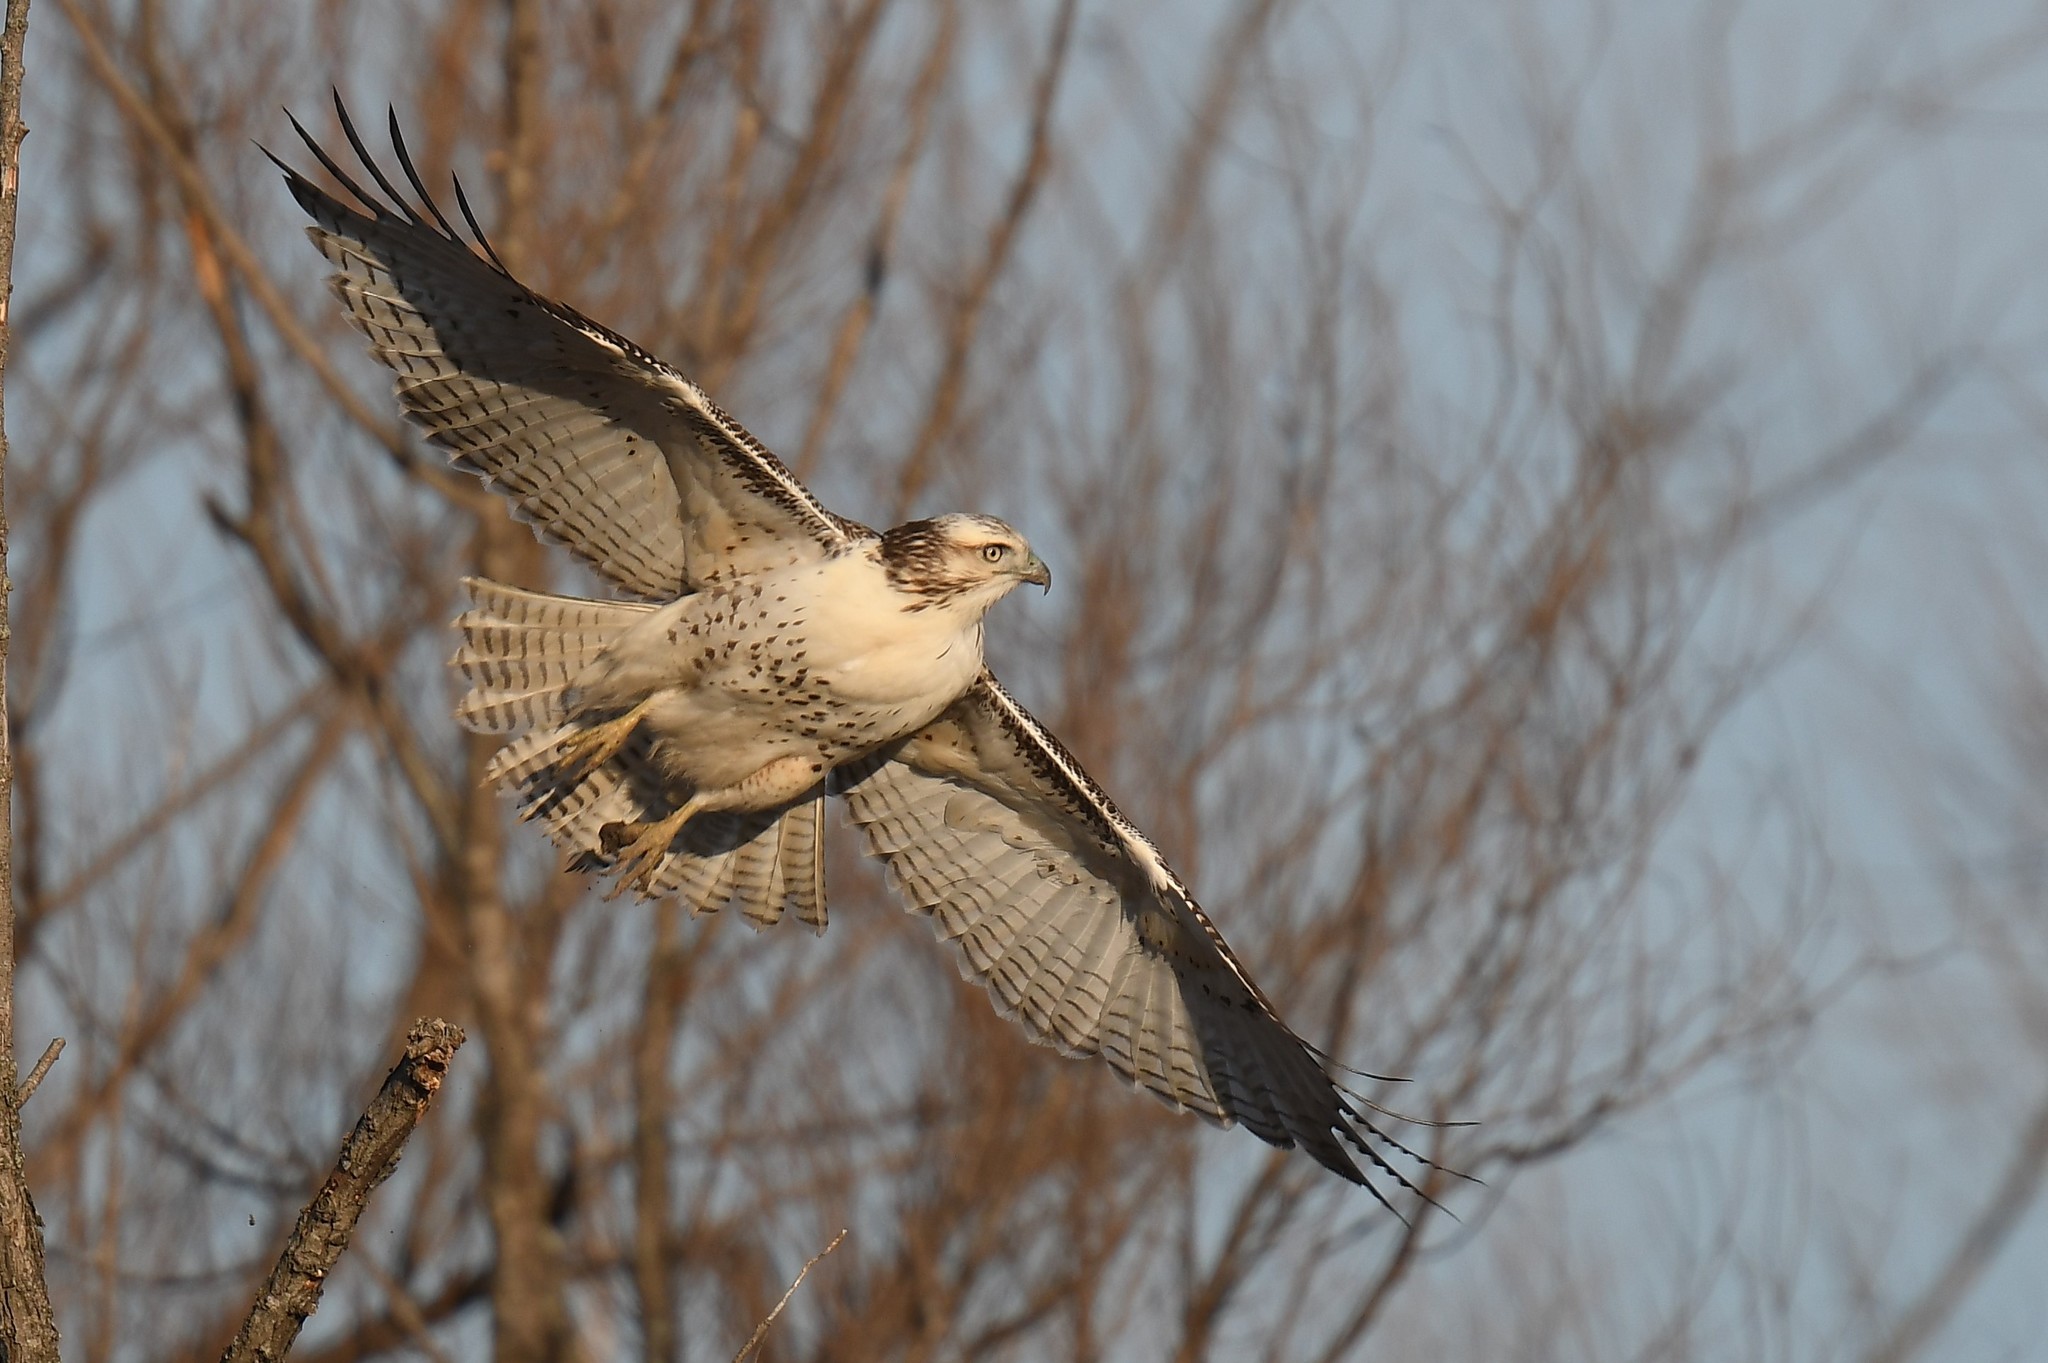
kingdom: Animalia
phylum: Chordata
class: Aves
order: Accipitriformes
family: Accipitridae
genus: Buteo
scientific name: Buteo jamaicensis
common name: Red-tailed hawk
